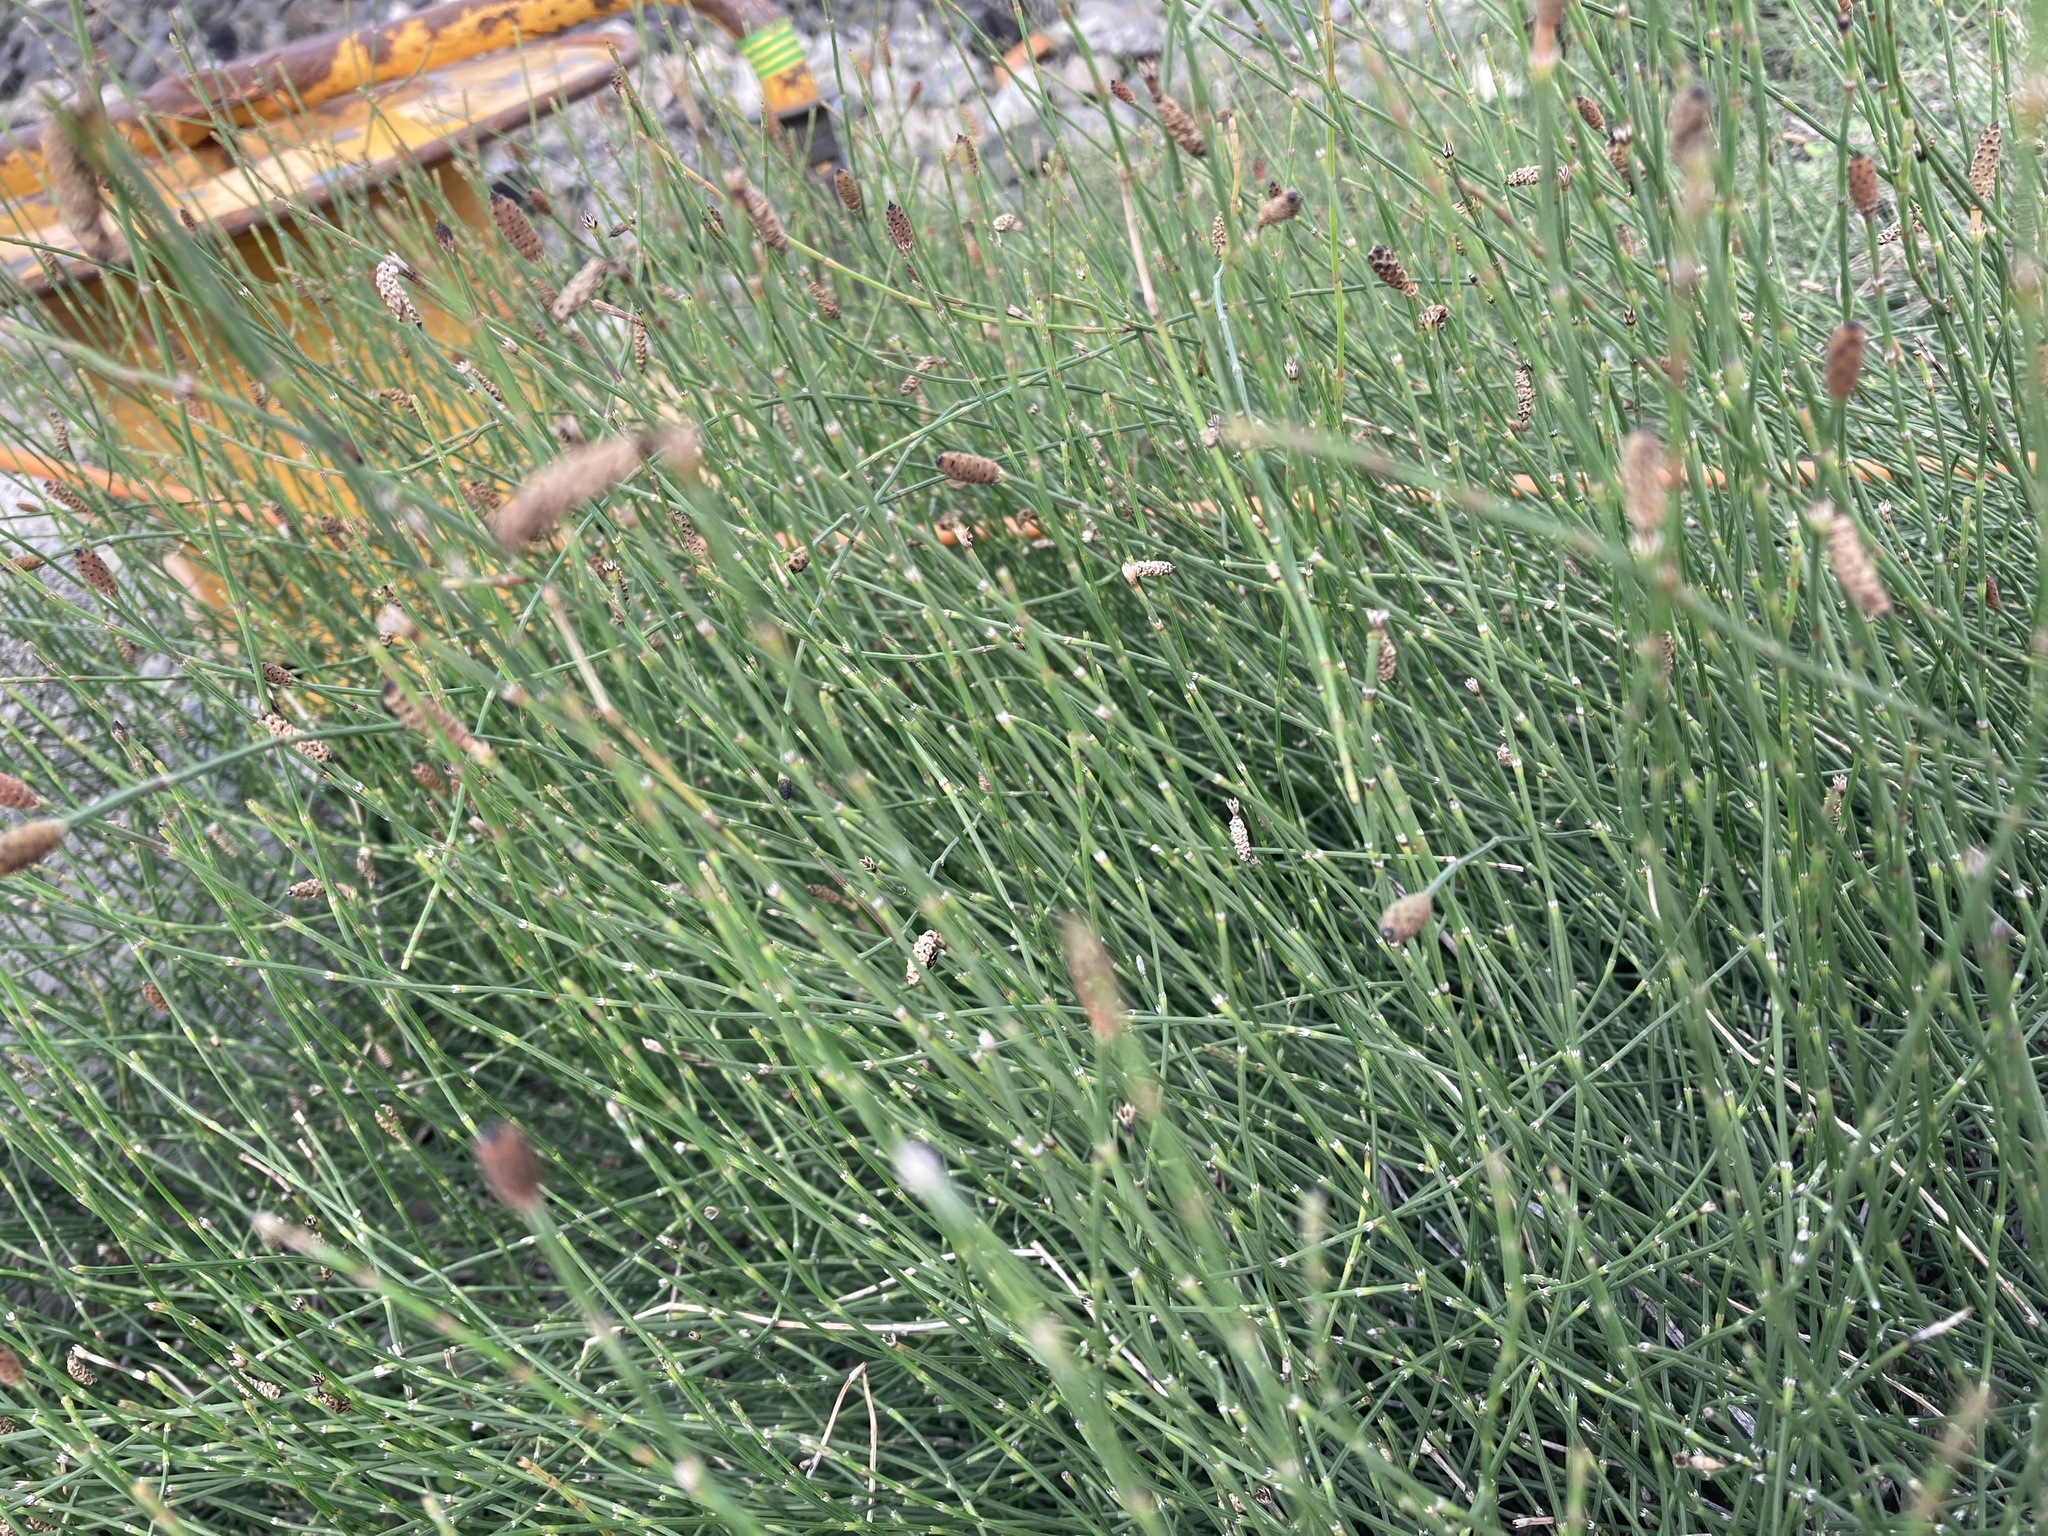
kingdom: Plantae
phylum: Tracheophyta
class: Polypodiopsida
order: Equisetales
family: Equisetaceae
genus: Equisetum
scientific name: Equisetum ramosissimum
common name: Branched horsetail
